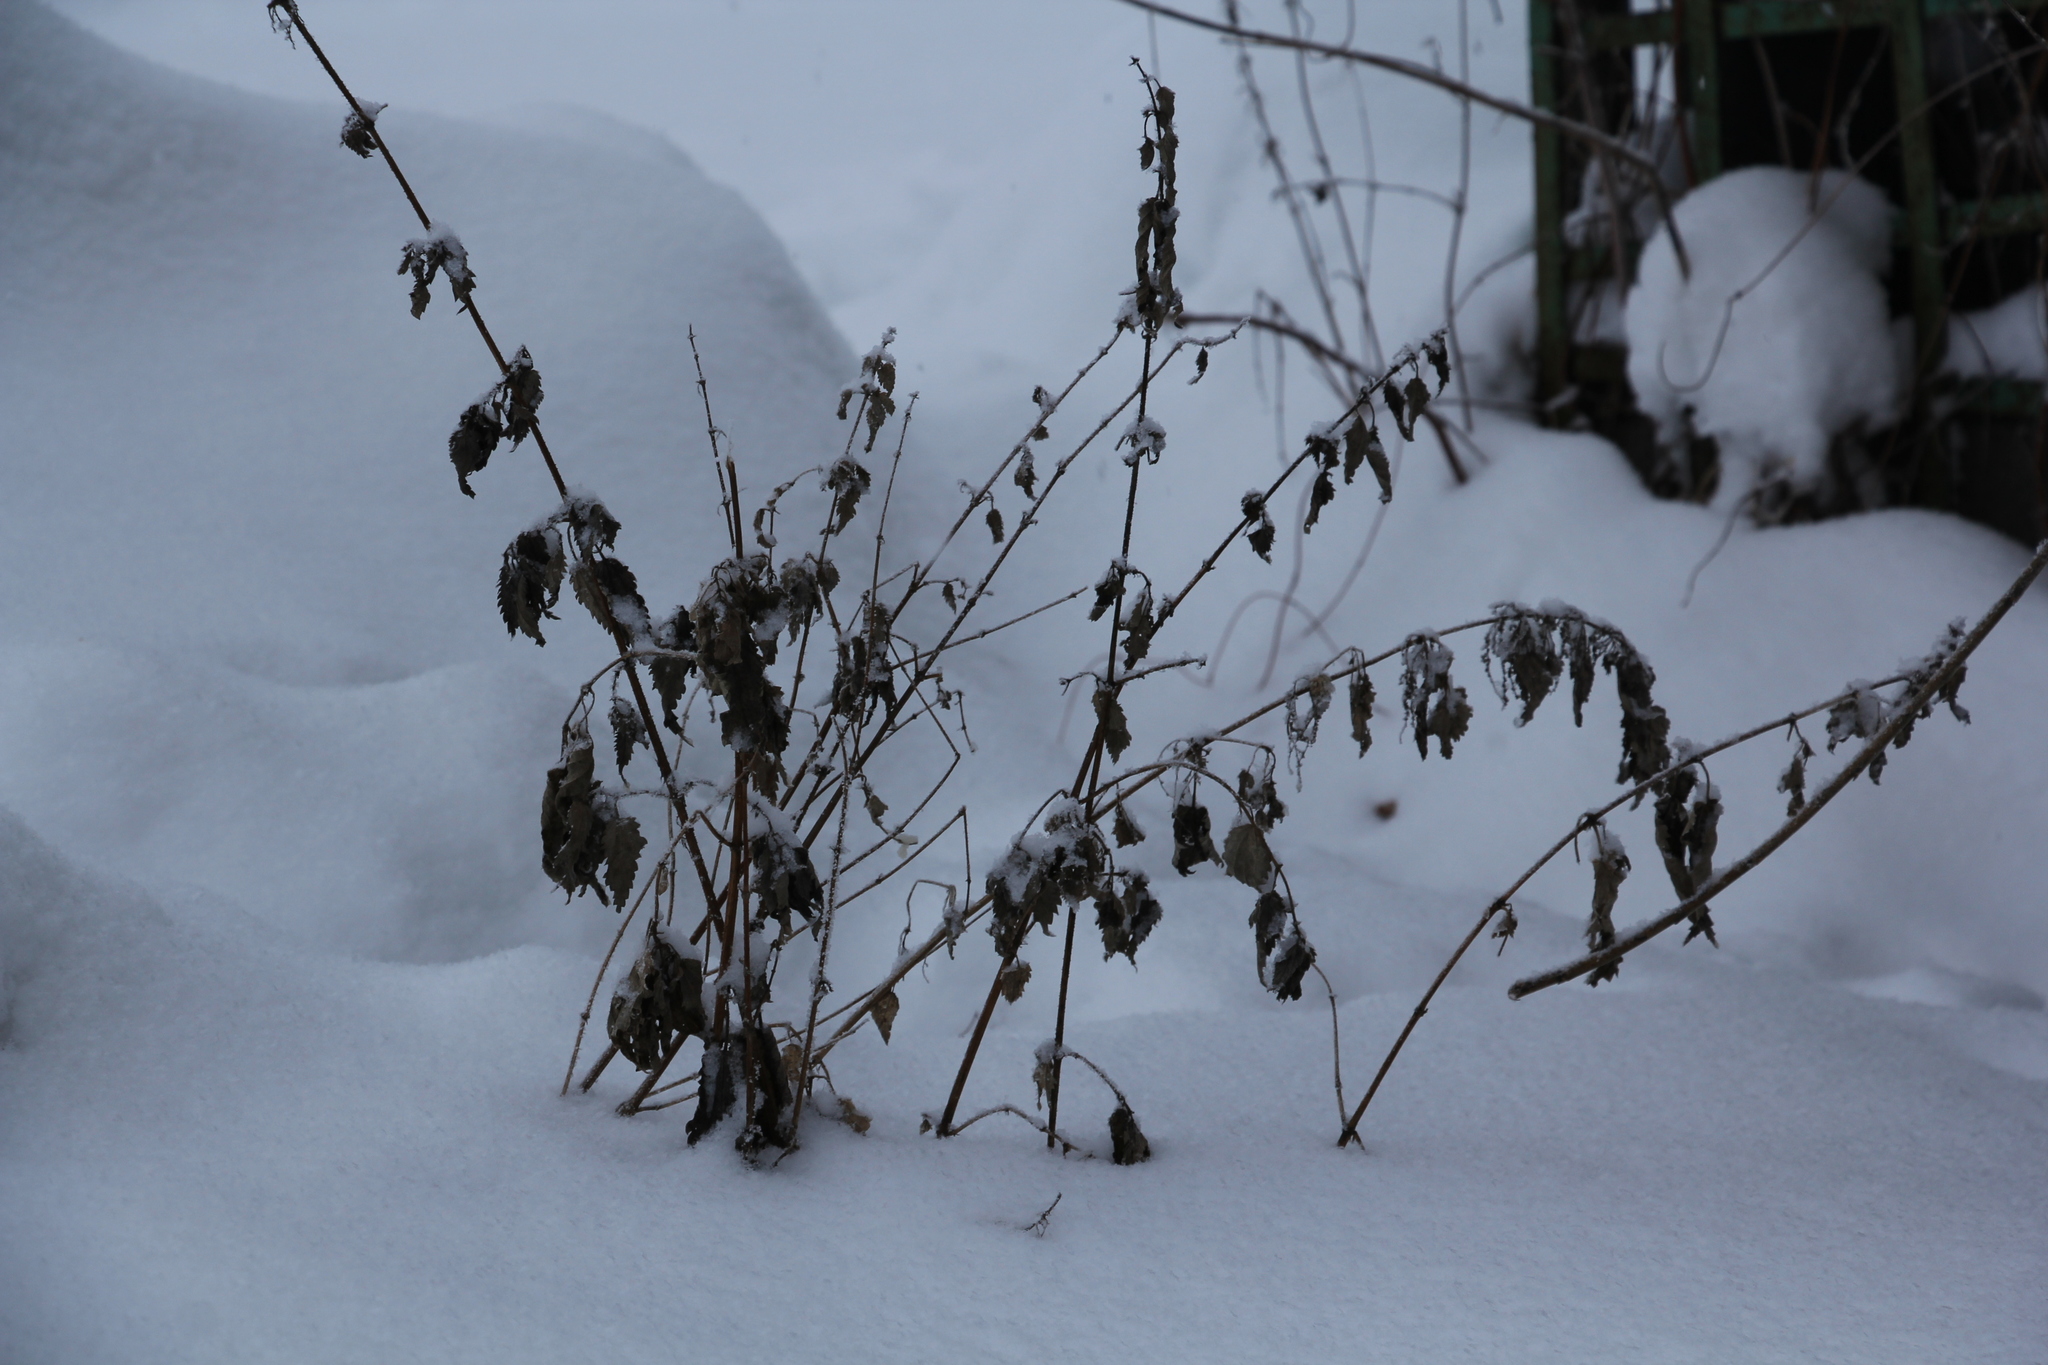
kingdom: Plantae
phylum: Tracheophyta
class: Magnoliopsida
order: Rosales
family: Urticaceae
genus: Urtica
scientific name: Urtica dioica
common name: Common nettle
